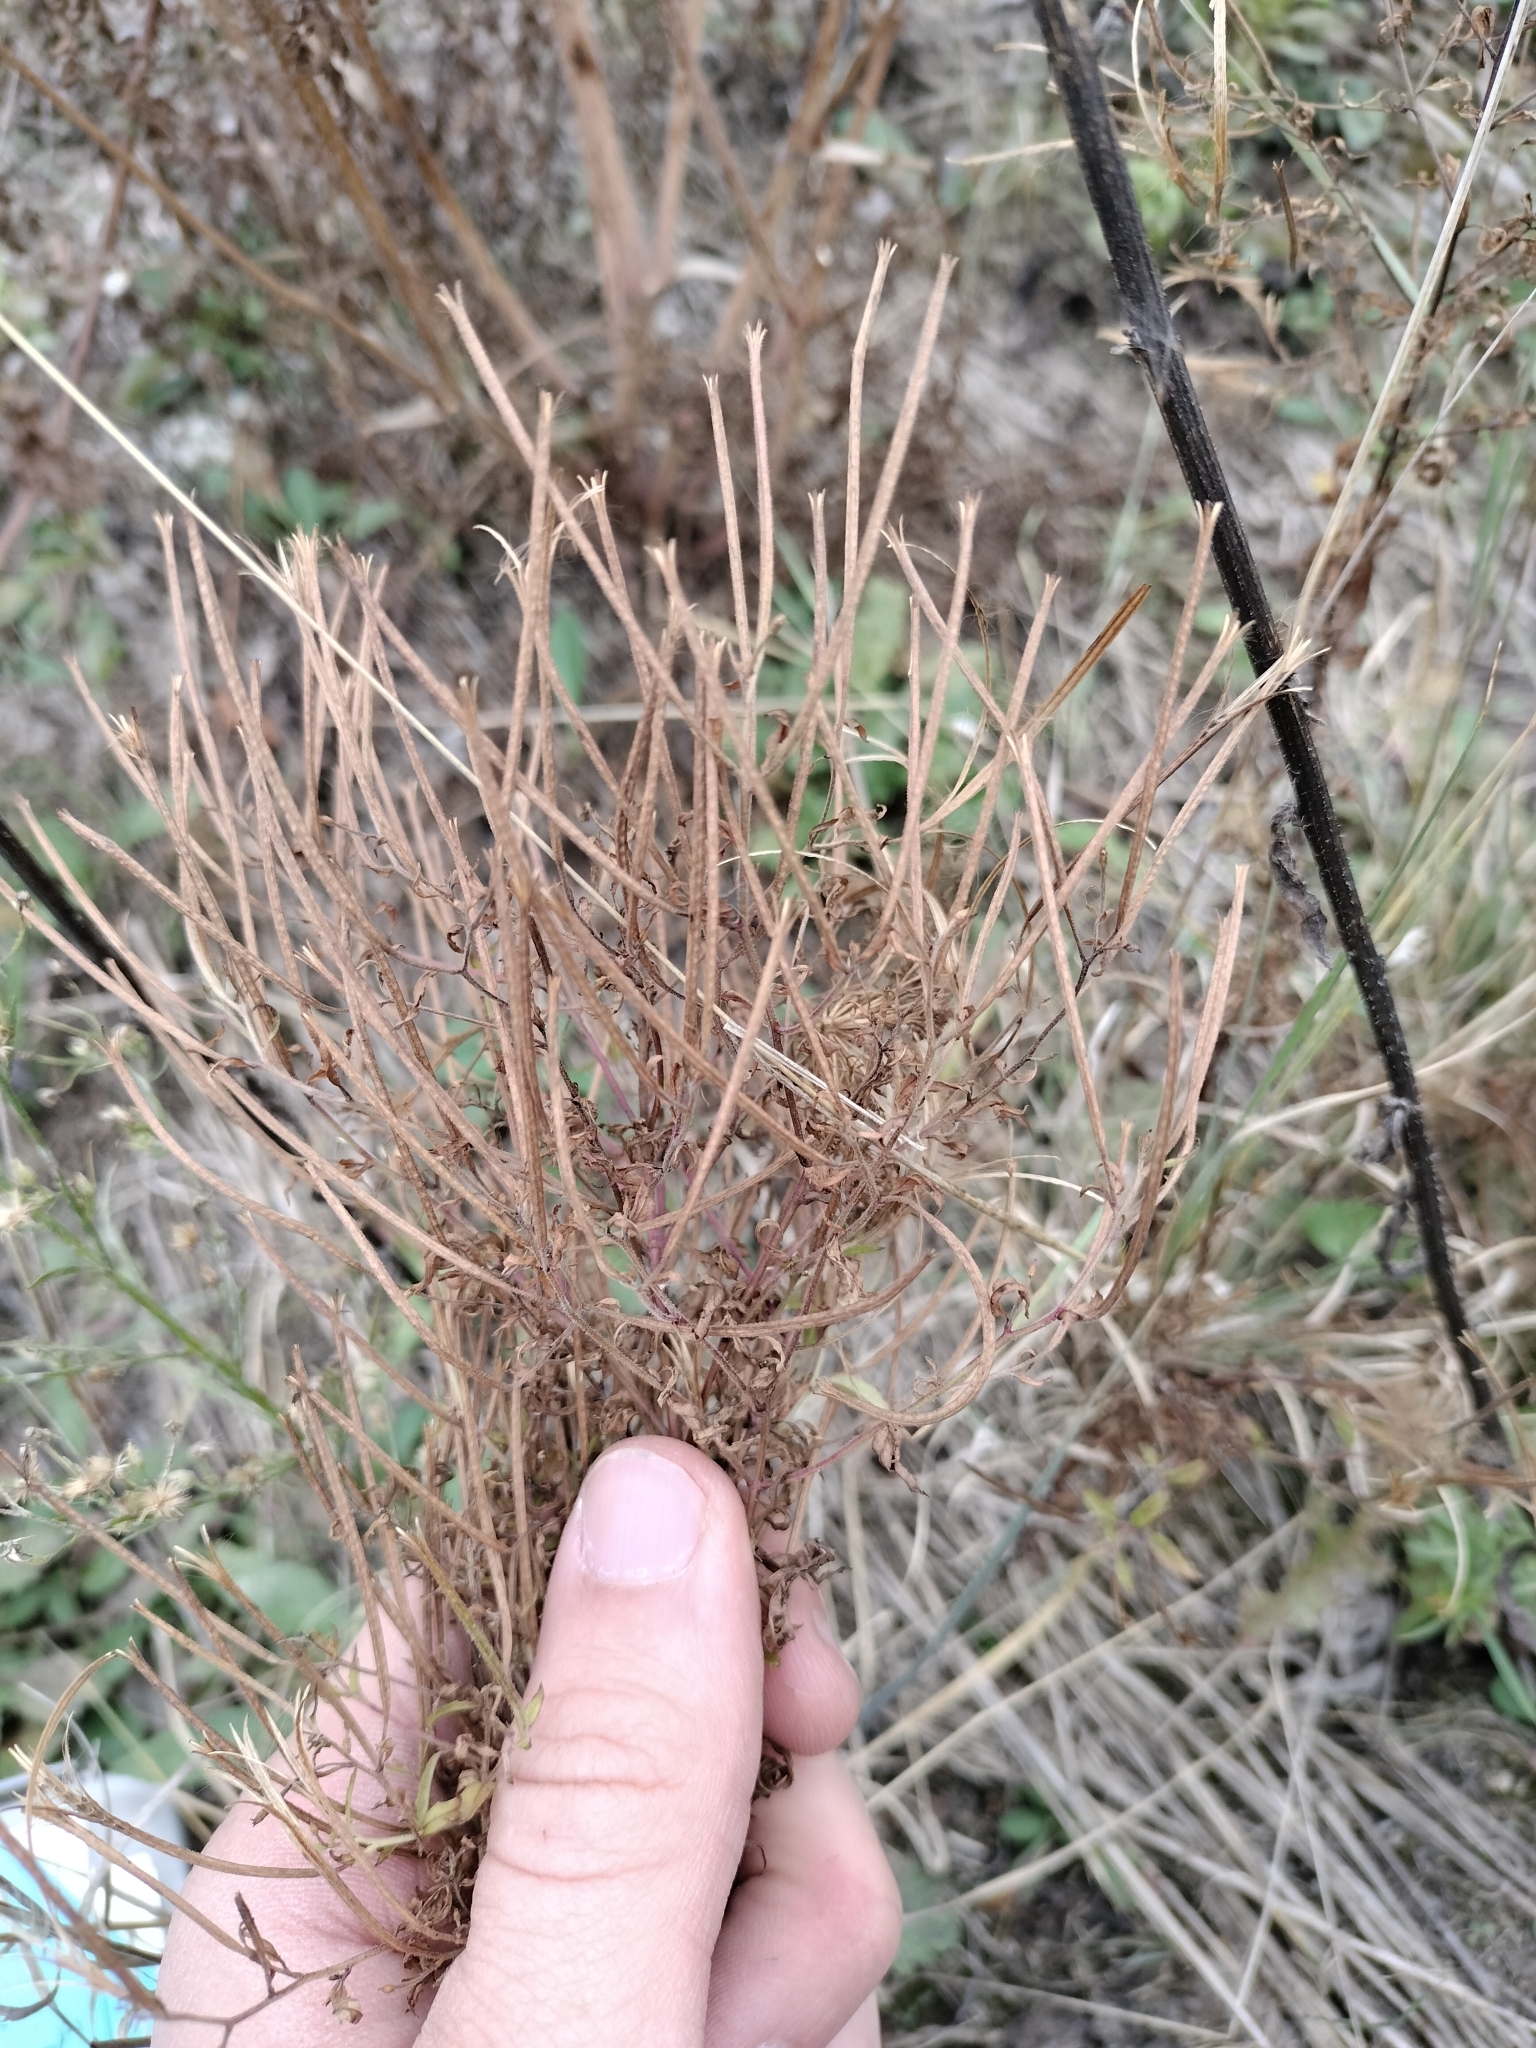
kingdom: Plantae
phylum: Tracheophyta
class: Magnoliopsida
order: Myrtales
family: Onagraceae
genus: Epilobium
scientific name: Epilobium coloratum
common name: Bronze willowherb
